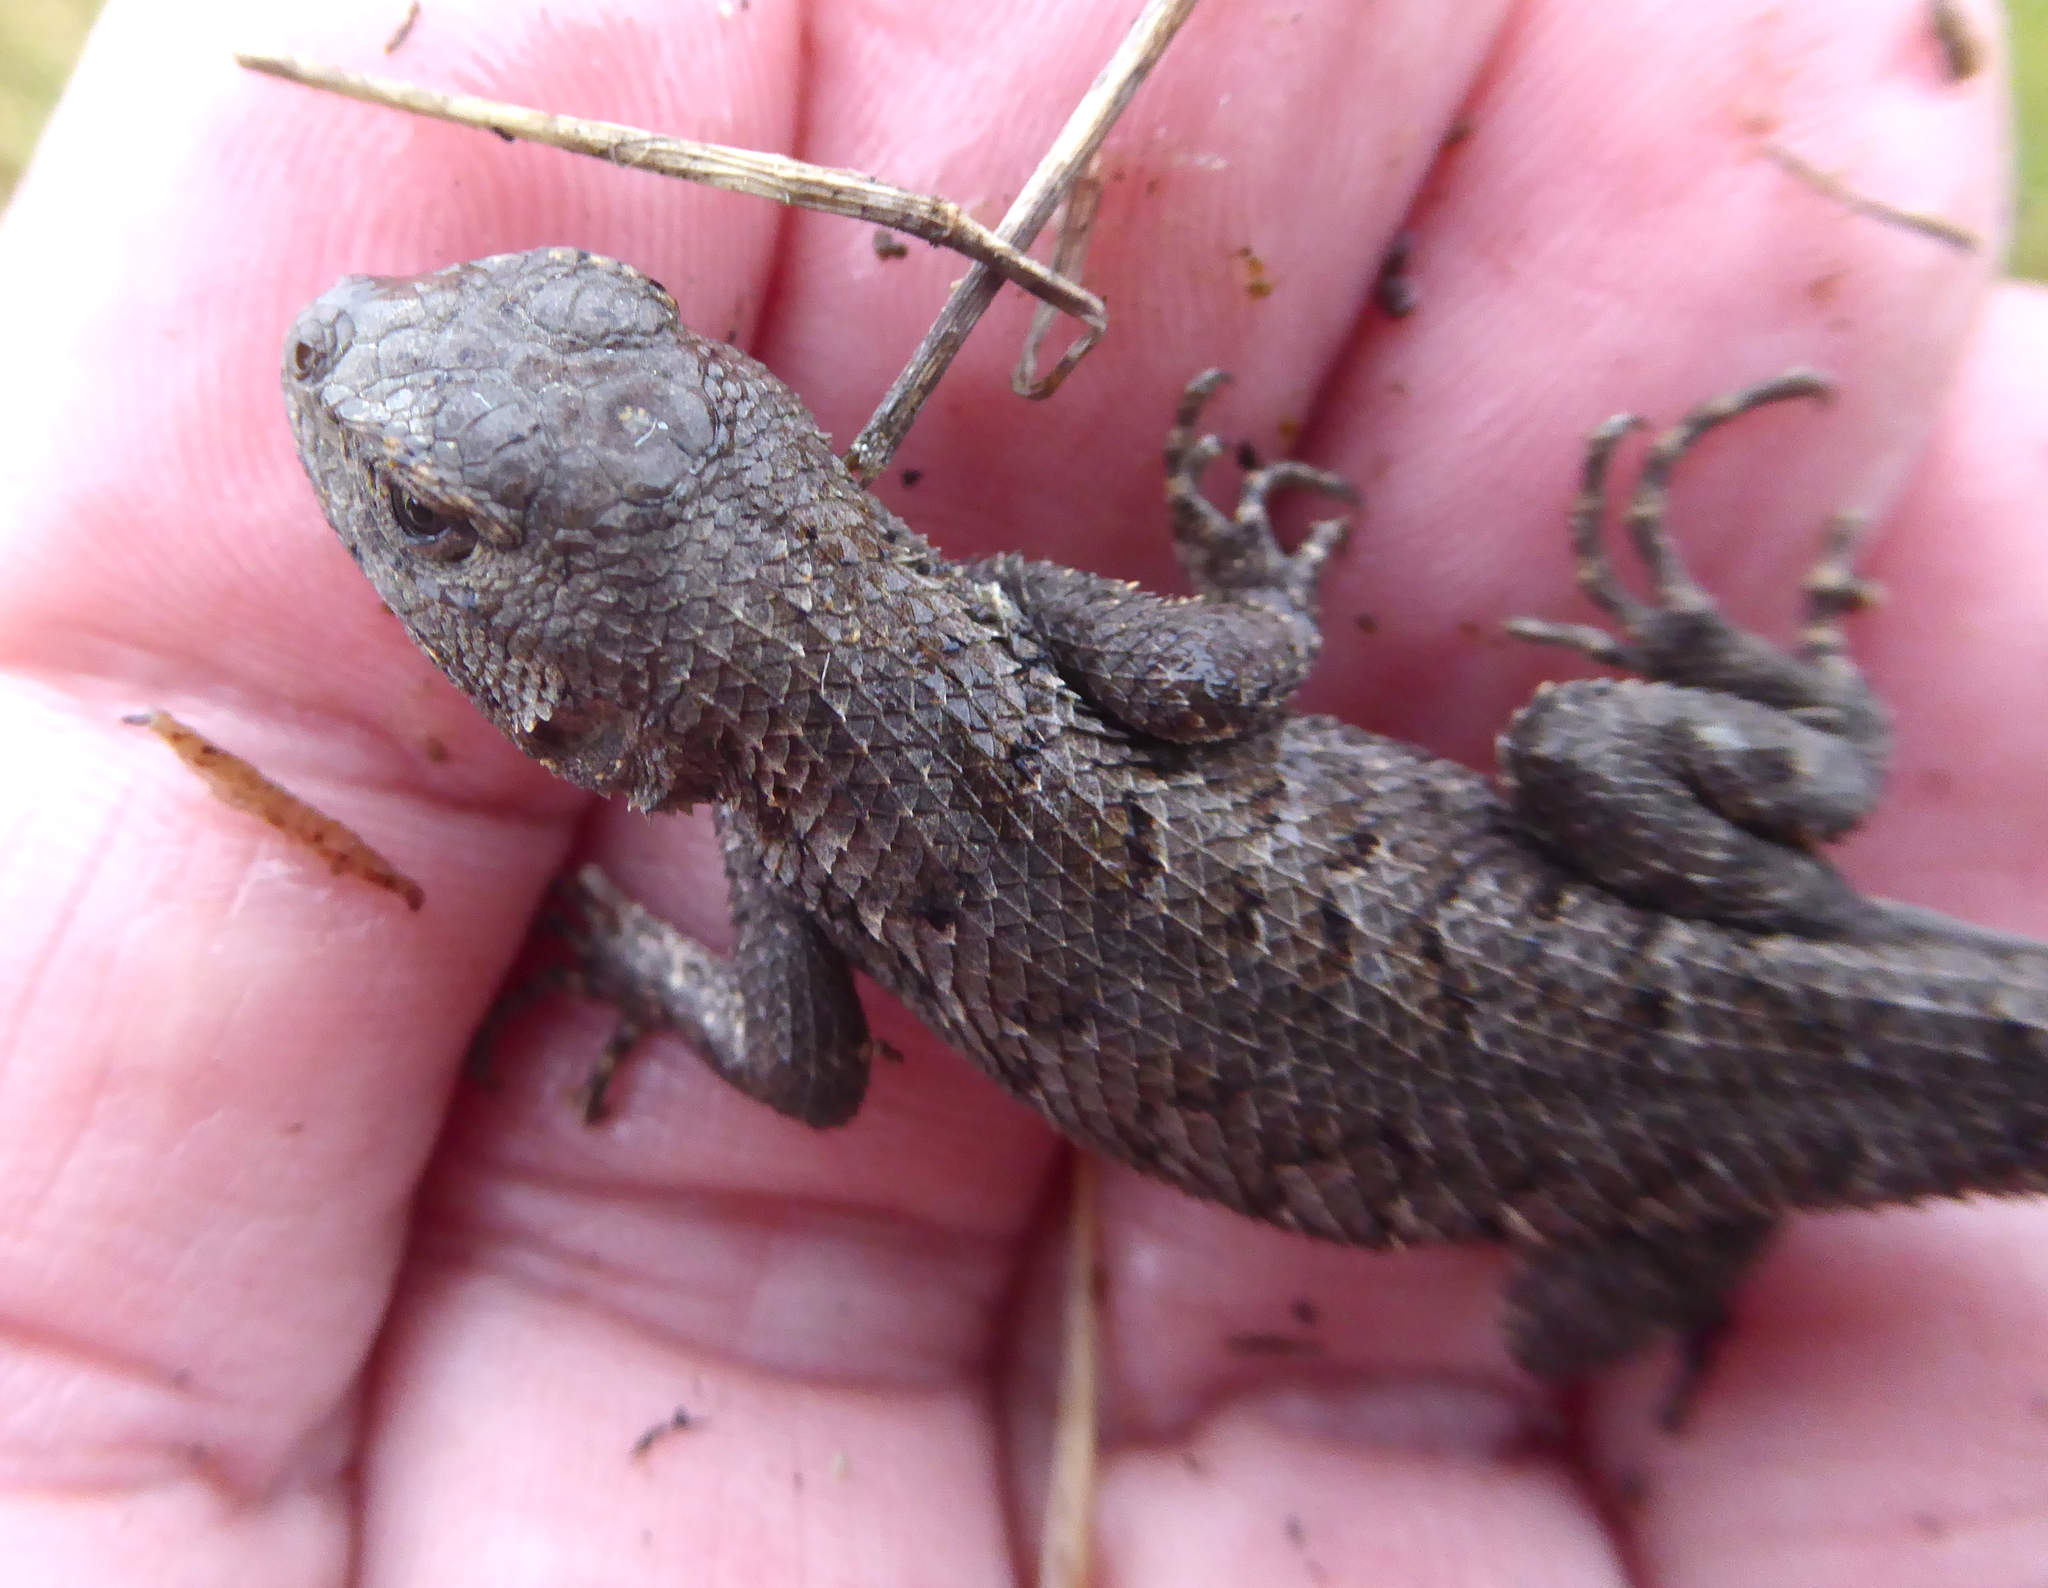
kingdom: Animalia
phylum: Chordata
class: Squamata
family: Phrynosomatidae
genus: Sceloporus
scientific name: Sceloporus occidentalis
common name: Western fence lizard
